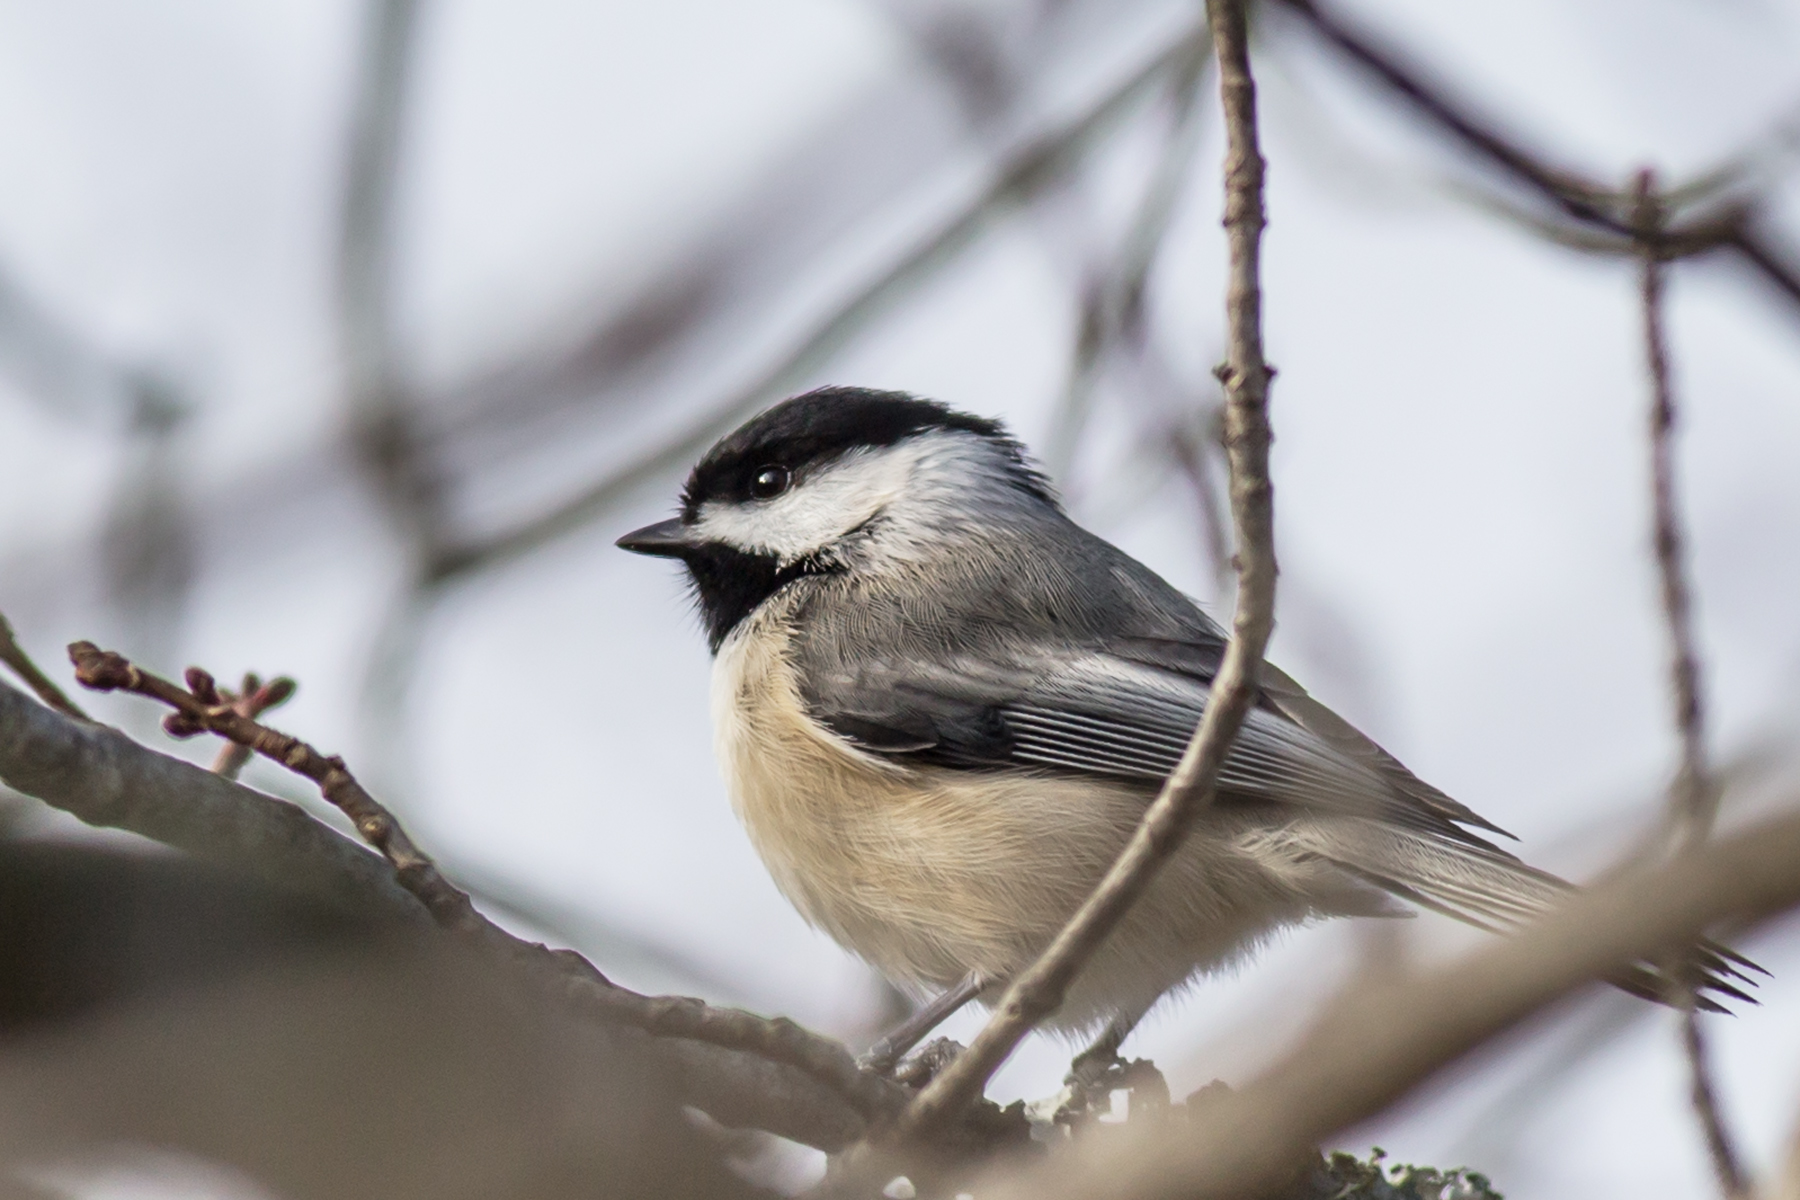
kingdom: Animalia
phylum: Chordata
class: Aves
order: Passeriformes
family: Paridae
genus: Poecile
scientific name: Poecile carolinensis
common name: Carolina chickadee
